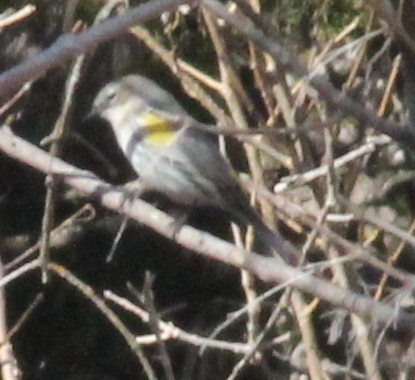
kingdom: Animalia
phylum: Chordata
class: Aves
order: Passeriformes
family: Parulidae
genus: Setophaga
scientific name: Setophaga coronata
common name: Myrtle warbler
